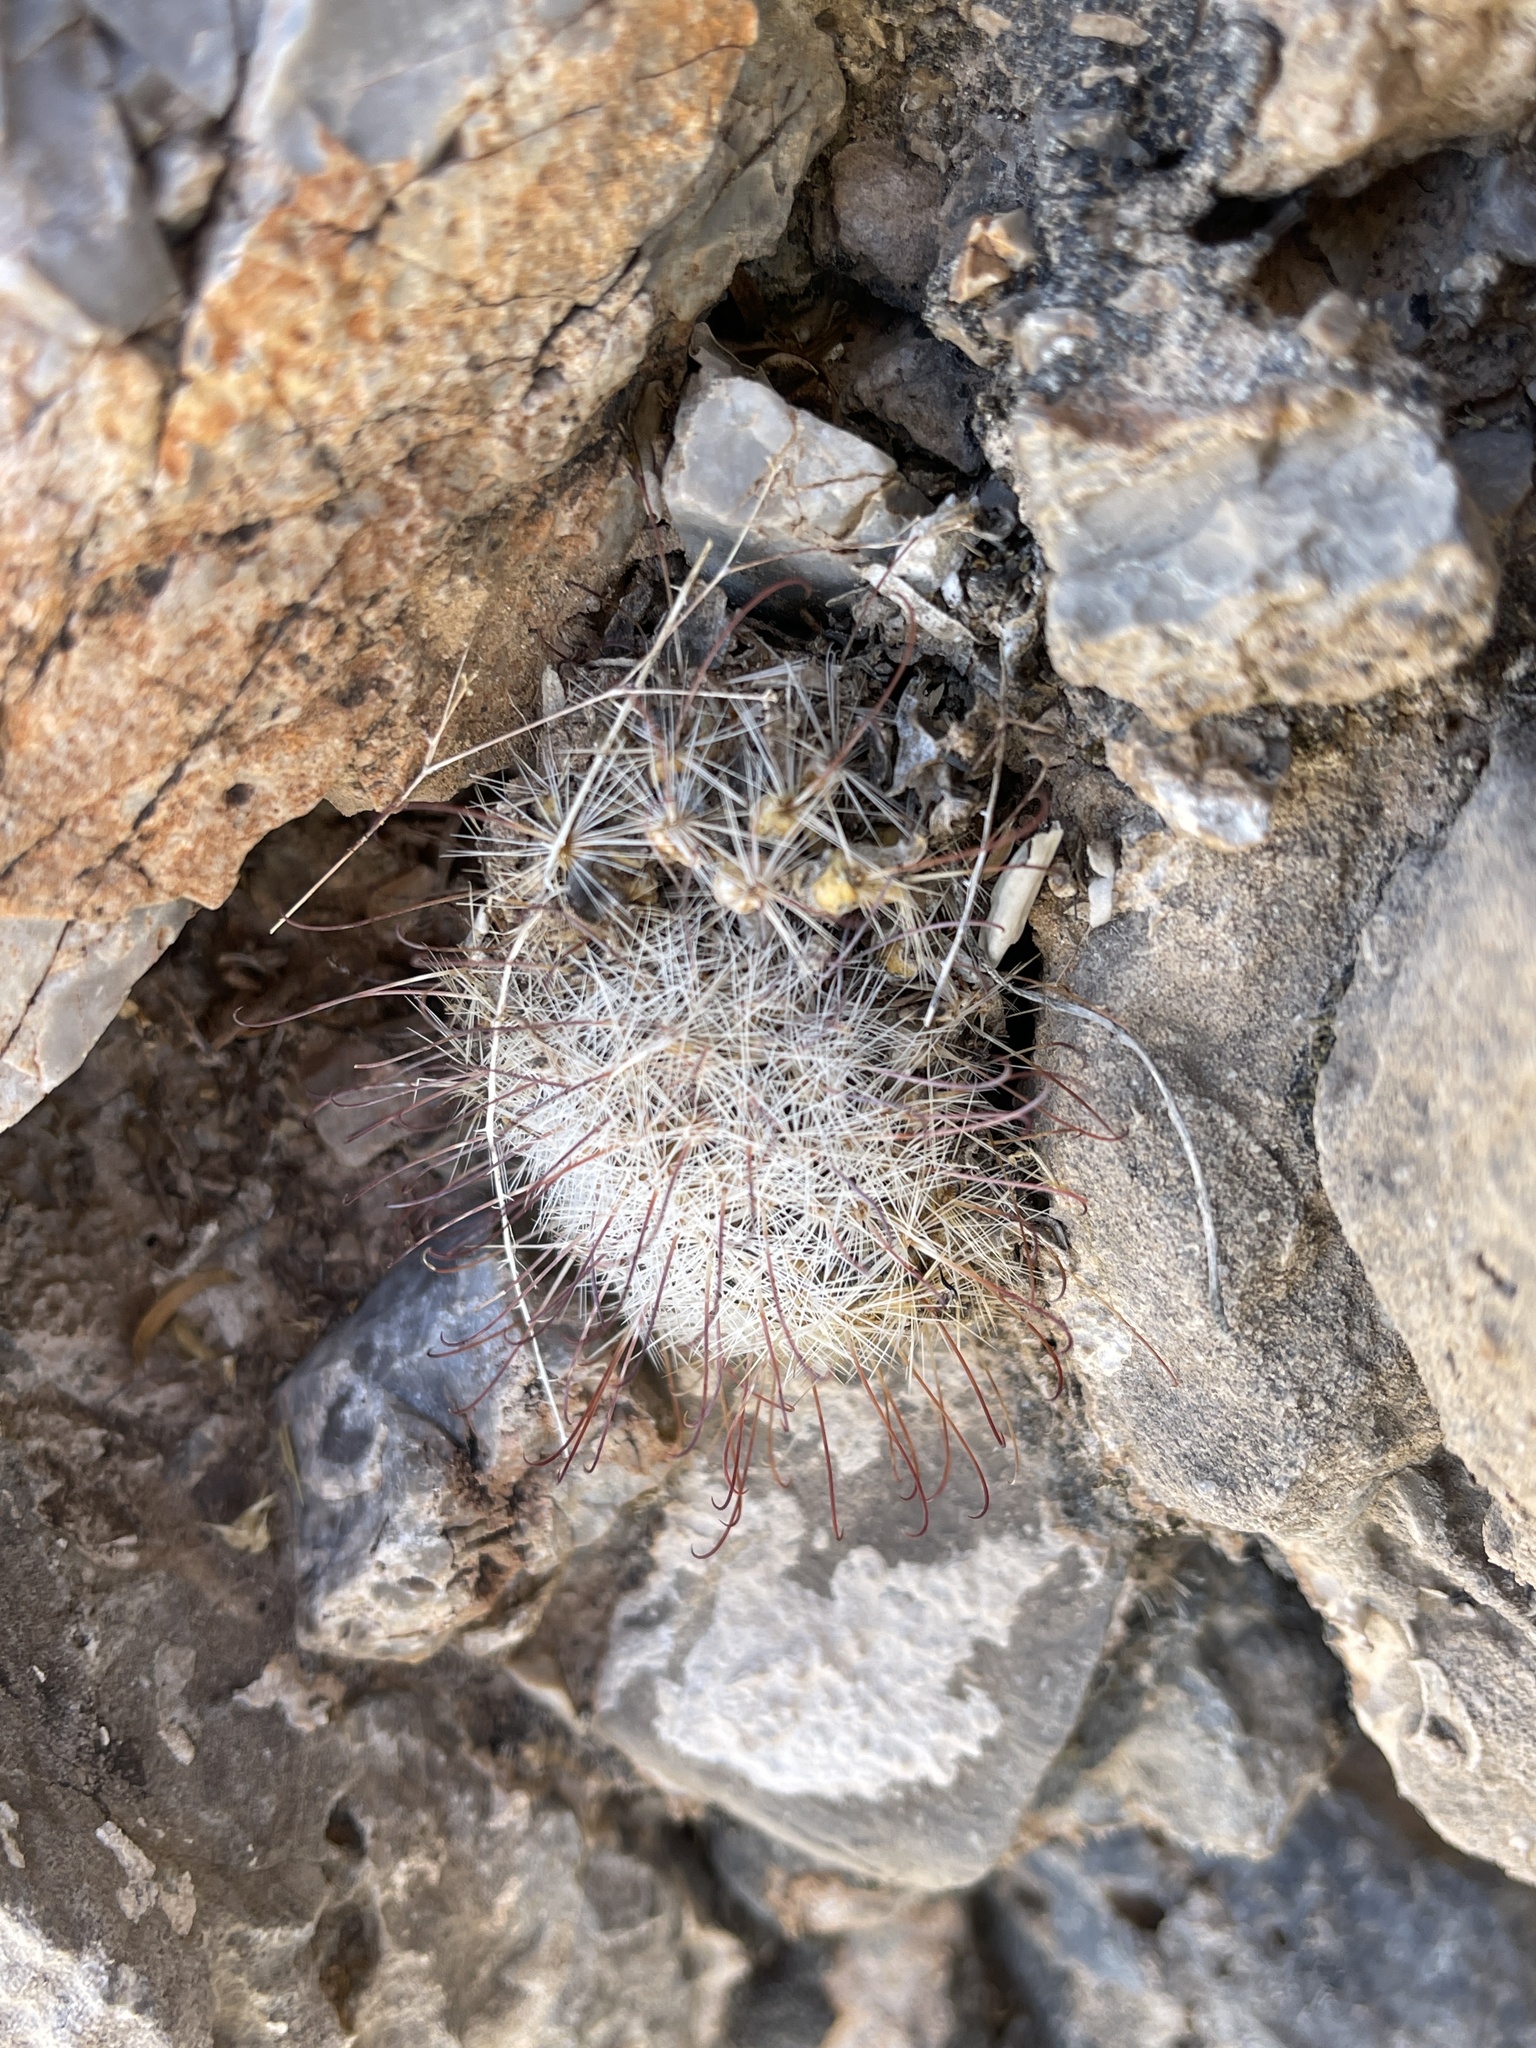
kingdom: Plantae
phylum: Tracheophyta
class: Magnoliopsida
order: Caryophyllales
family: Cactaceae
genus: Cochemiea
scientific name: Cochemiea grahamii
